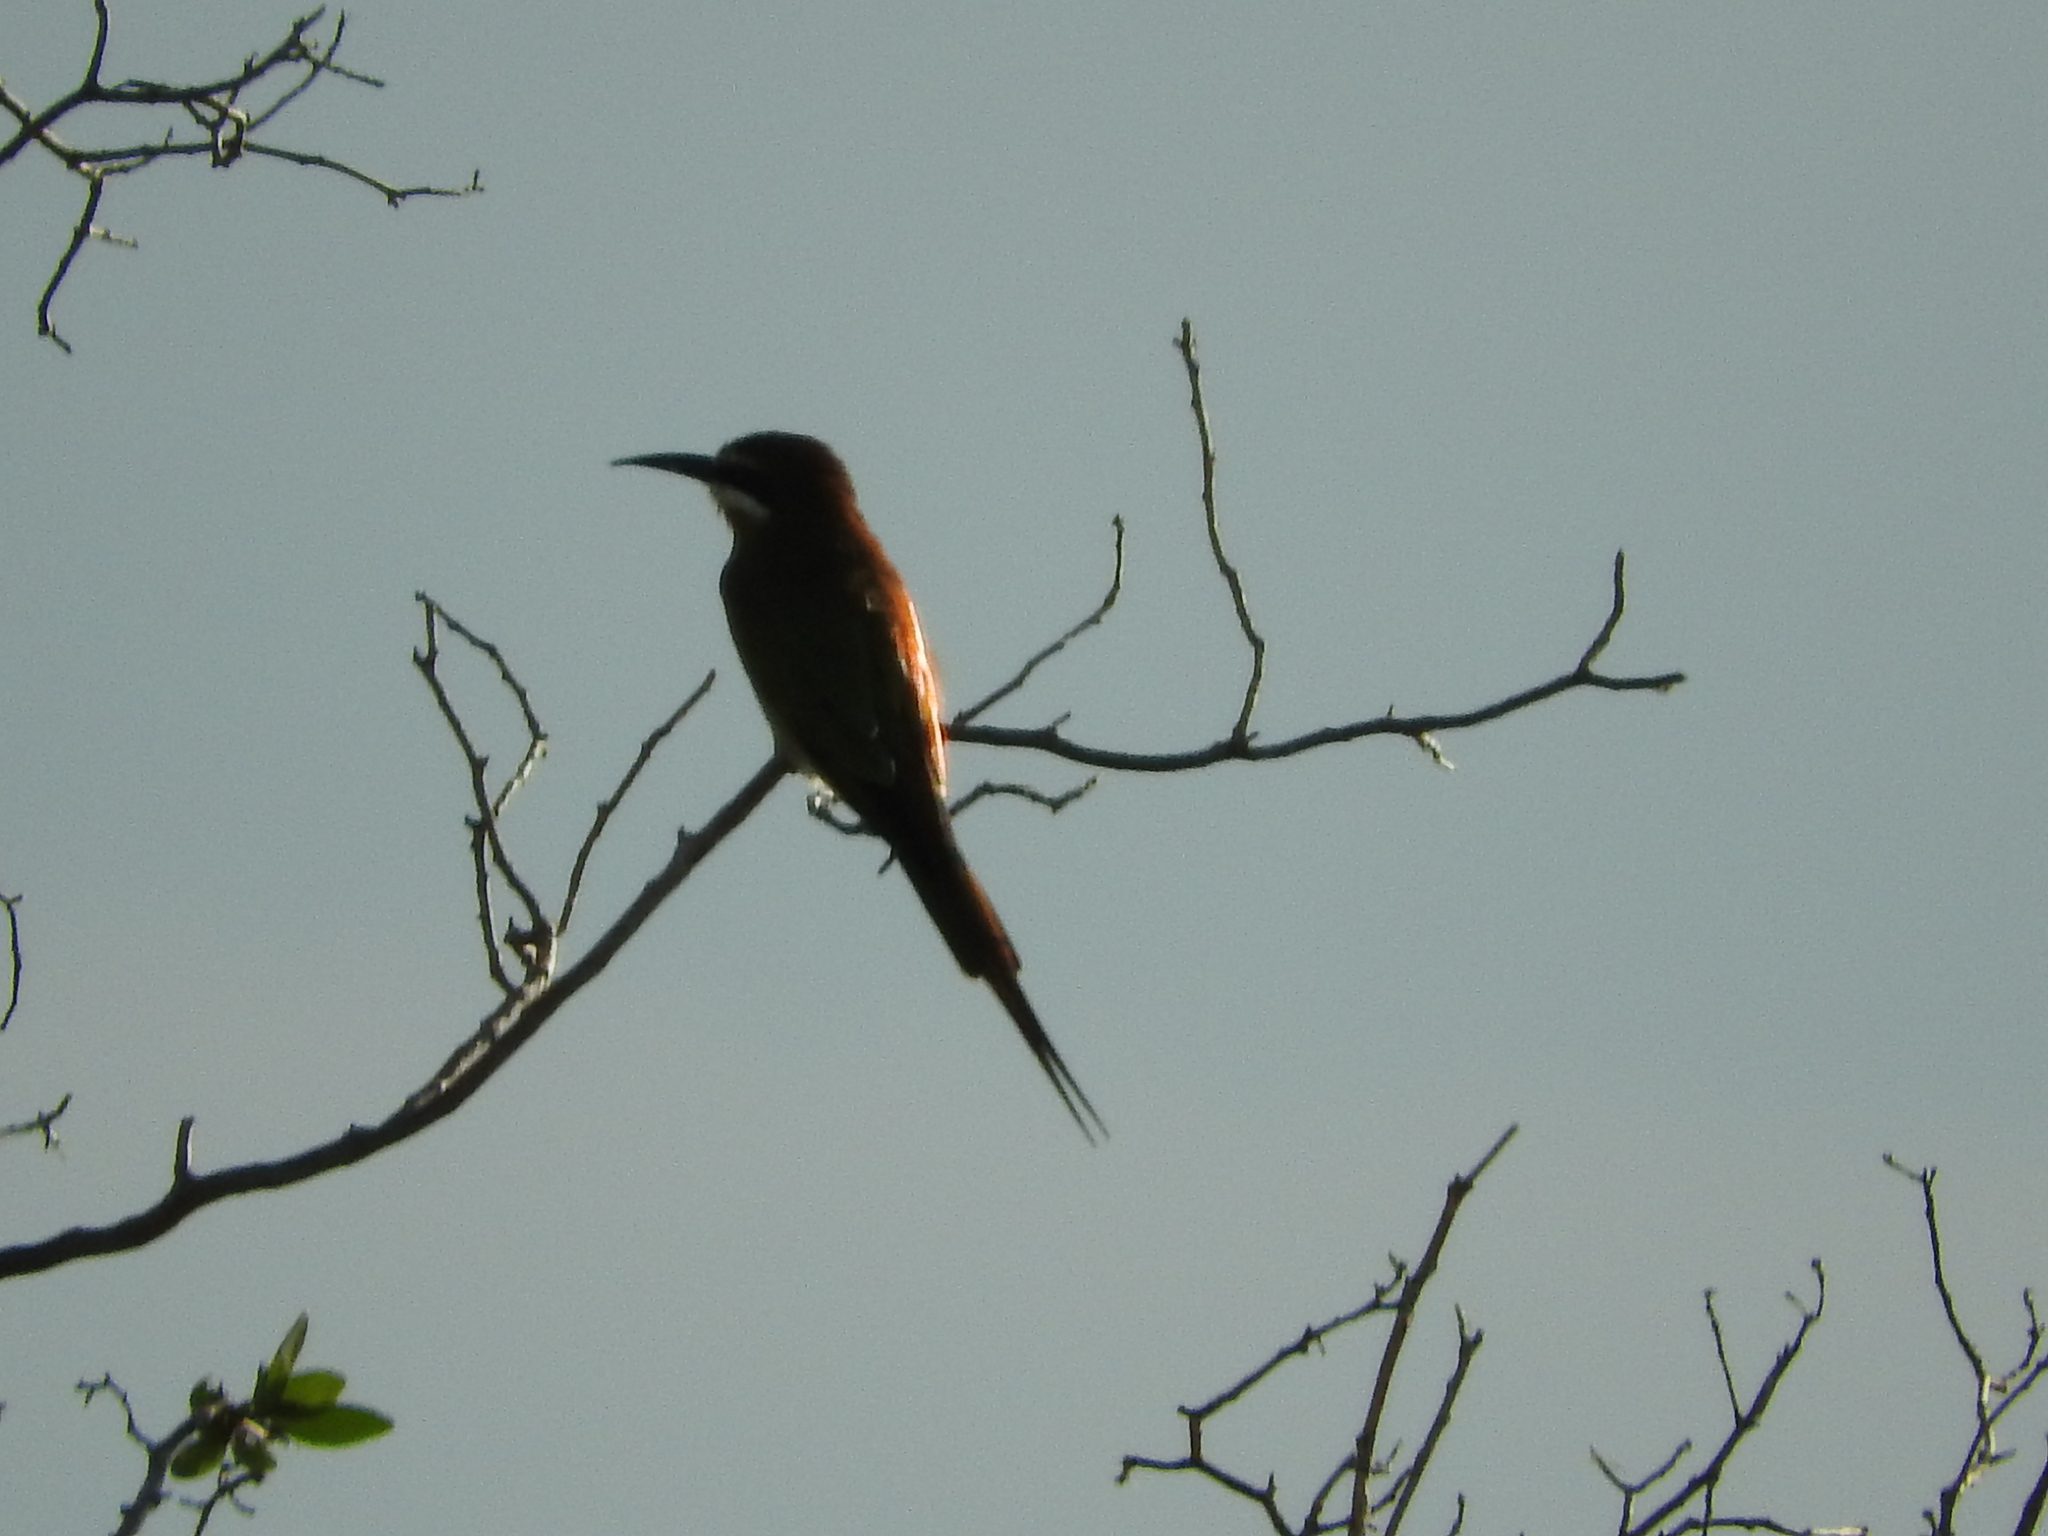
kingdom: Animalia
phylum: Chordata
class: Aves
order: Coraciiformes
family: Meropidae
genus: Merops
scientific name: Merops apiaster
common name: European bee-eater
